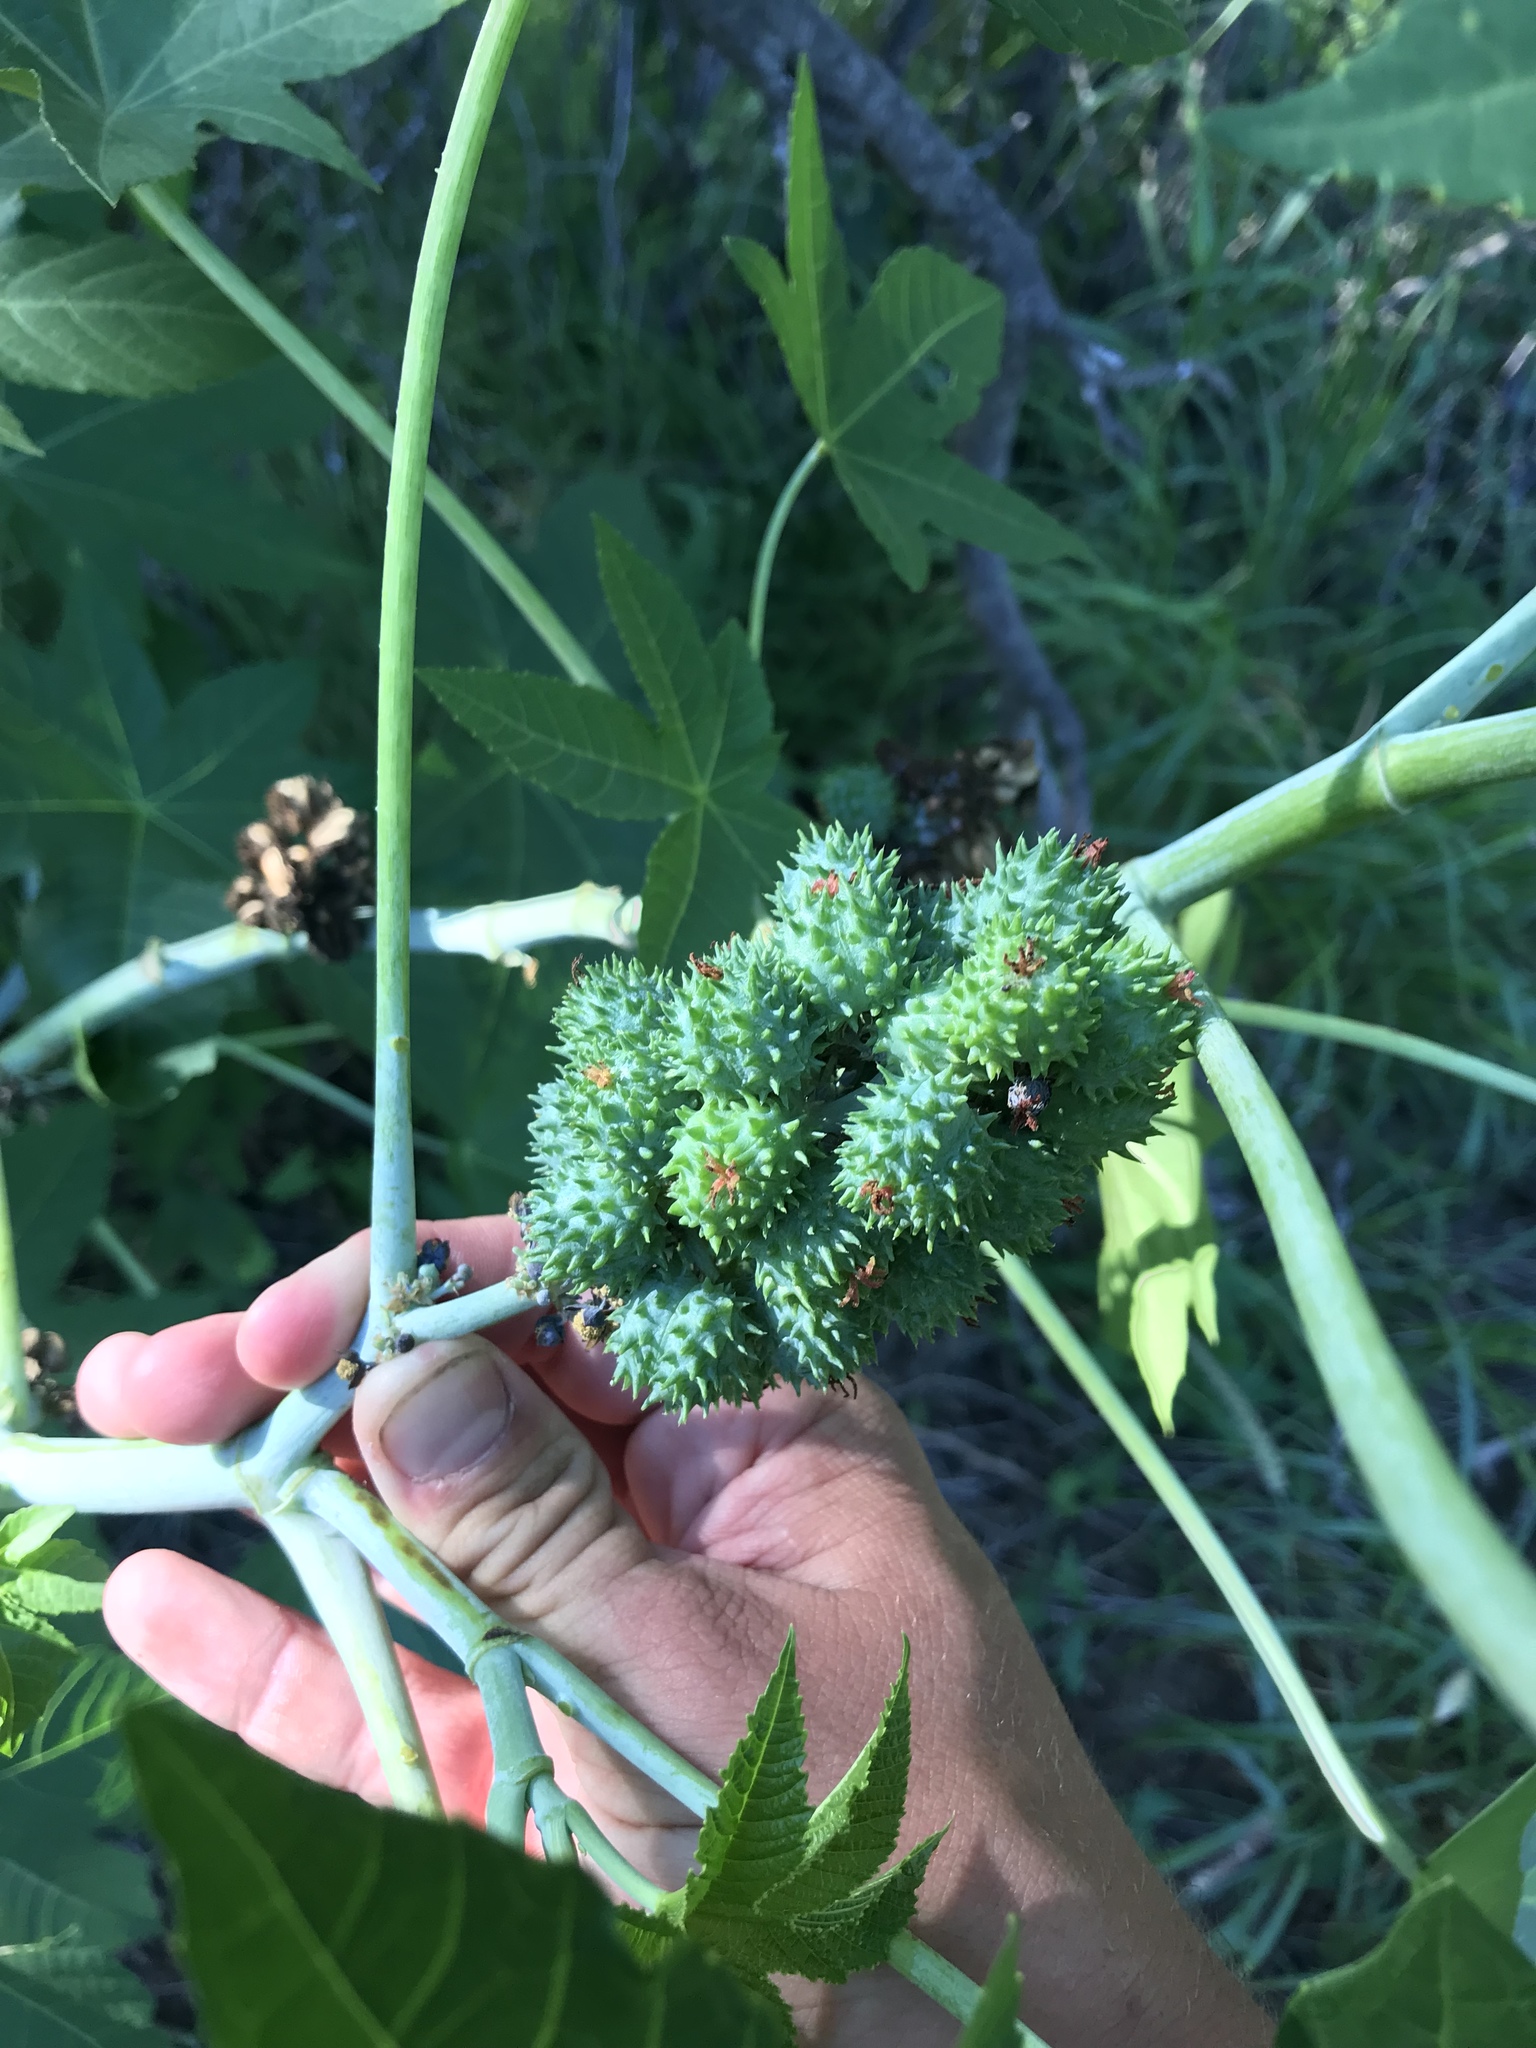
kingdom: Plantae
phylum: Tracheophyta
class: Magnoliopsida
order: Malpighiales
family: Euphorbiaceae
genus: Ricinus
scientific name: Ricinus communis
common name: Castor-oil-plant
